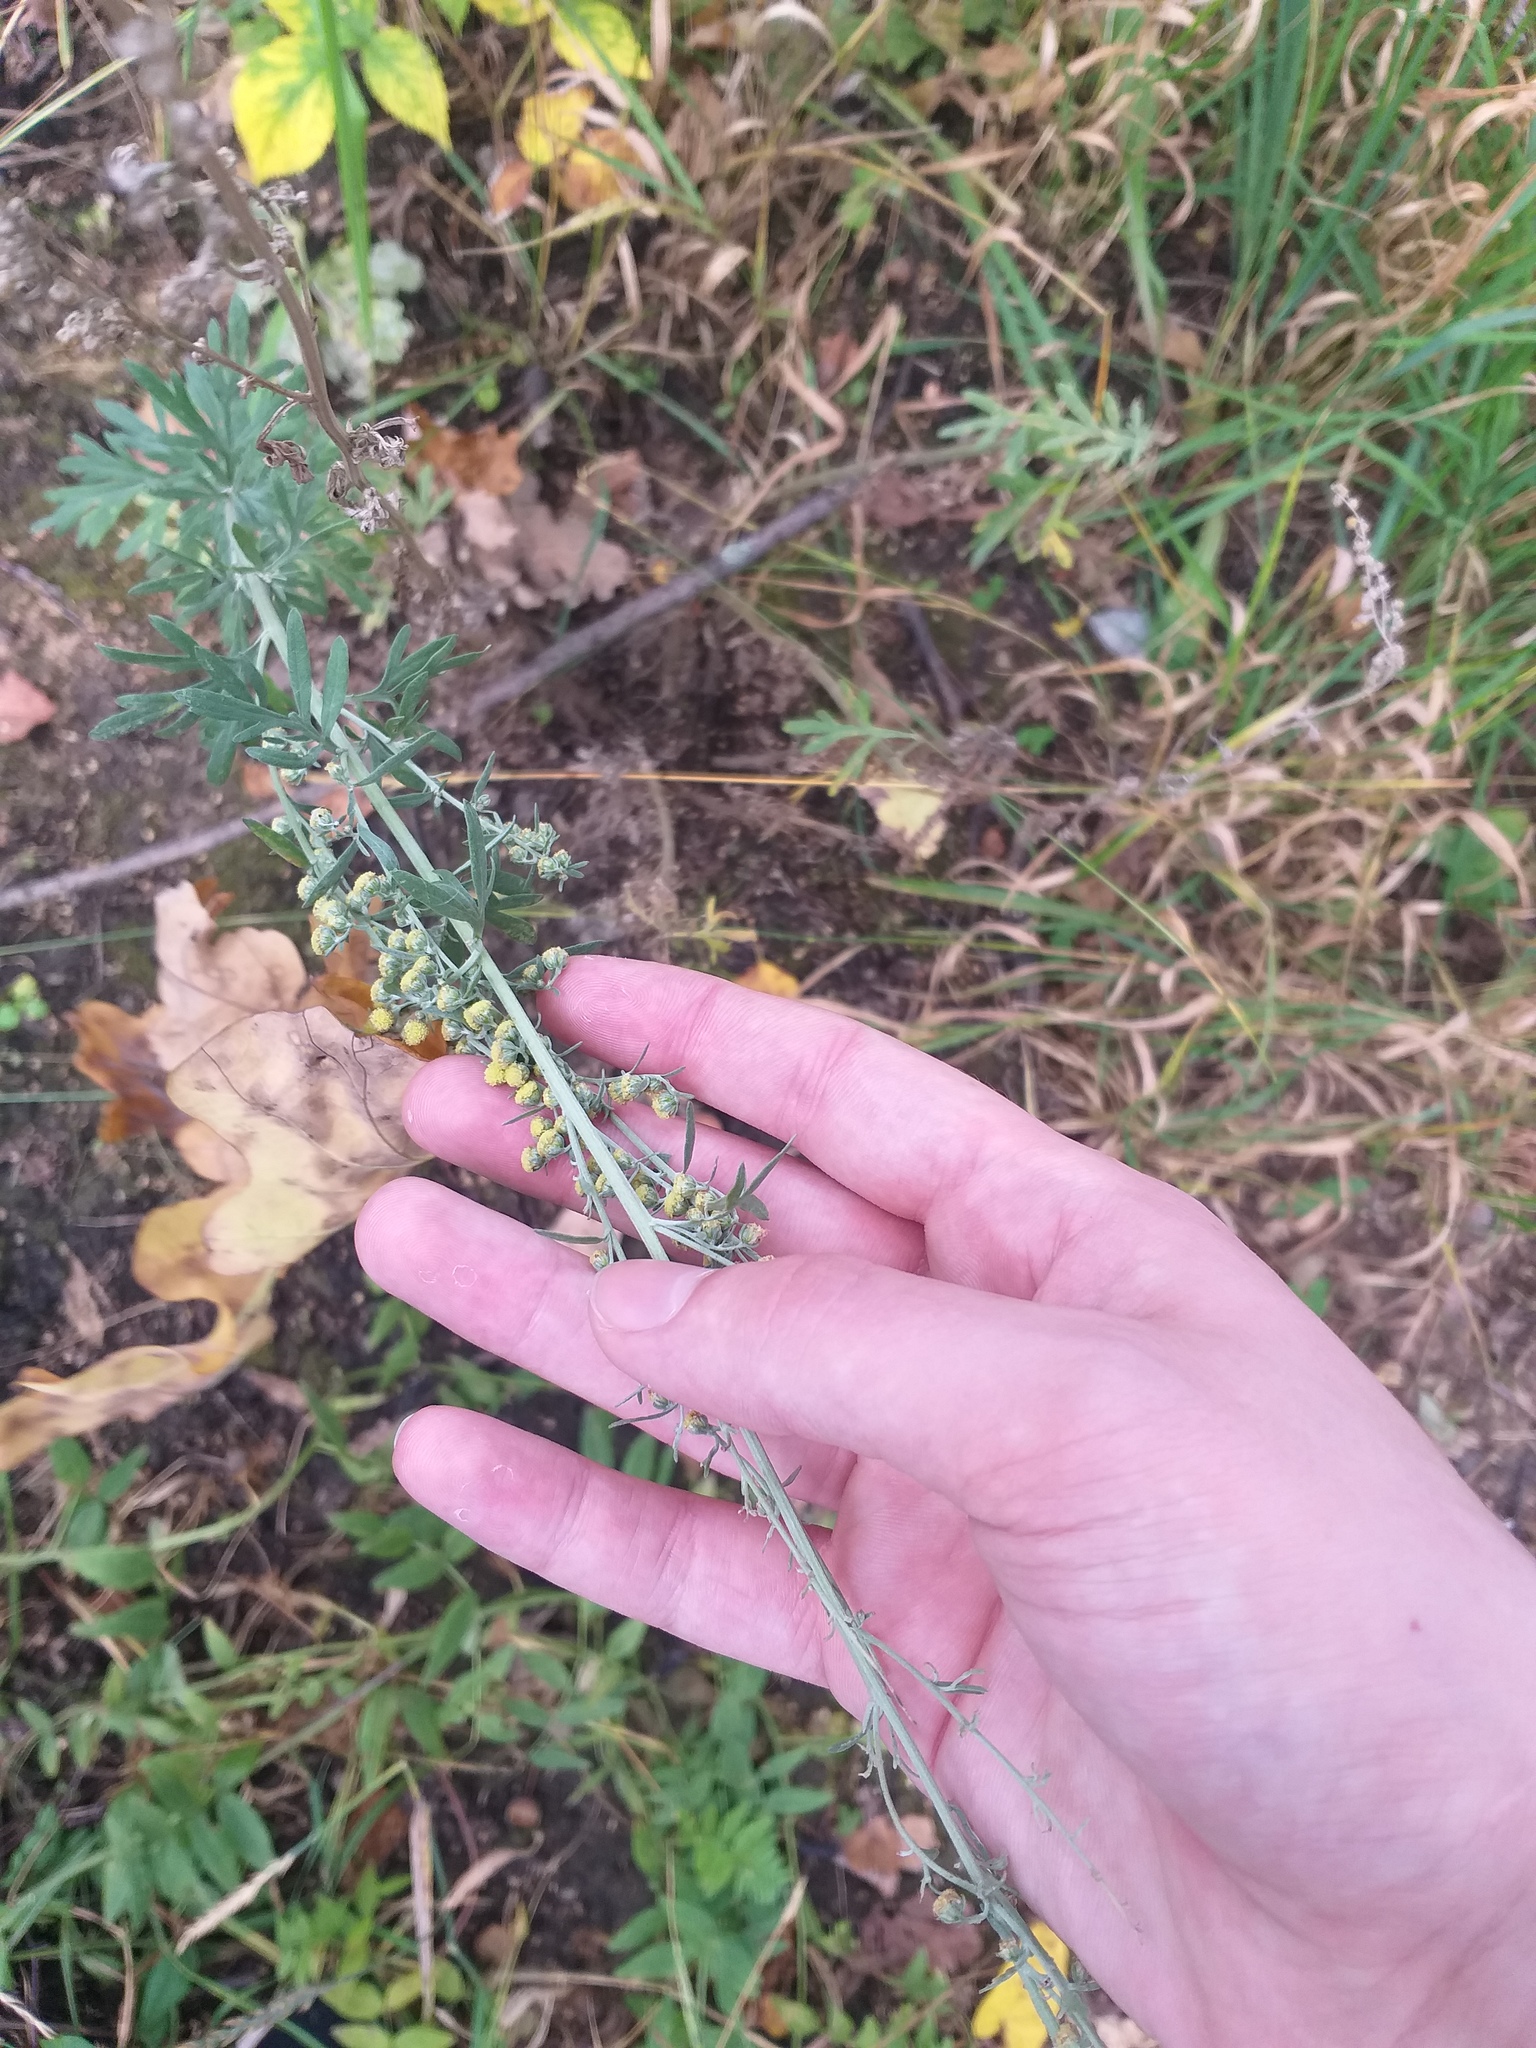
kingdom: Plantae
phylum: Tracheophyta
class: Magnoliopsida
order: Asterales
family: Asteraceae
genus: Artemisia
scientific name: Artemisia absinthium
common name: Wormwood
